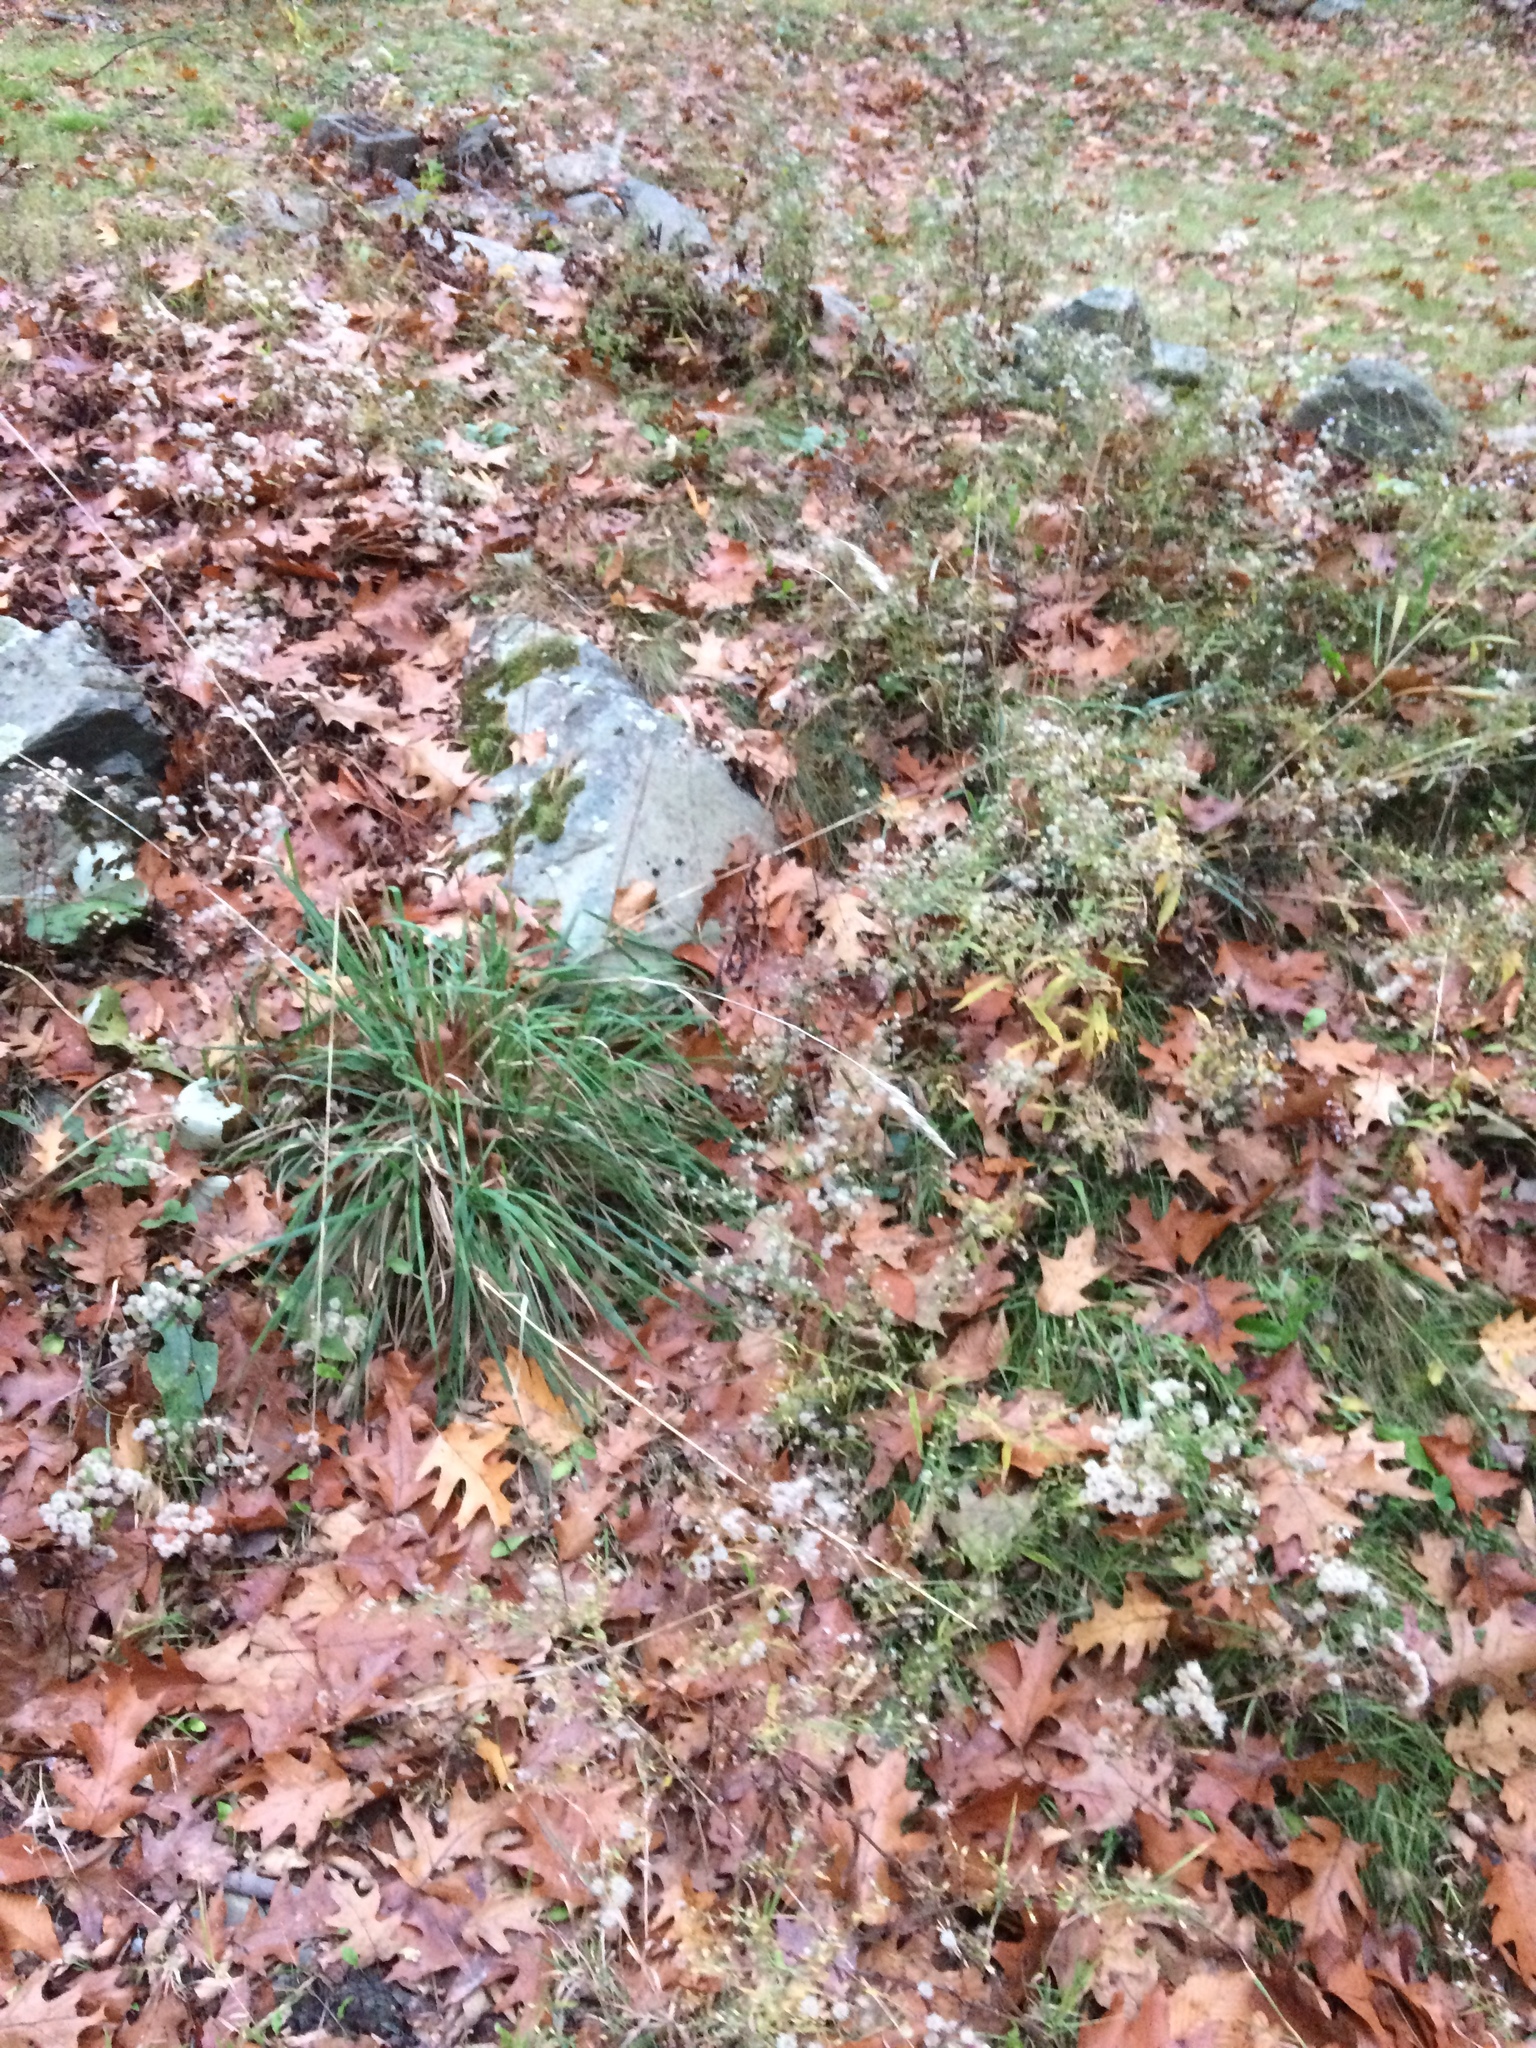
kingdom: Plantae
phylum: Tracheophyta
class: Liliopsida
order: Poales
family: Poaceae
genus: Dactylis
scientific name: Dactylis glomerata
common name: Orchardgrass
